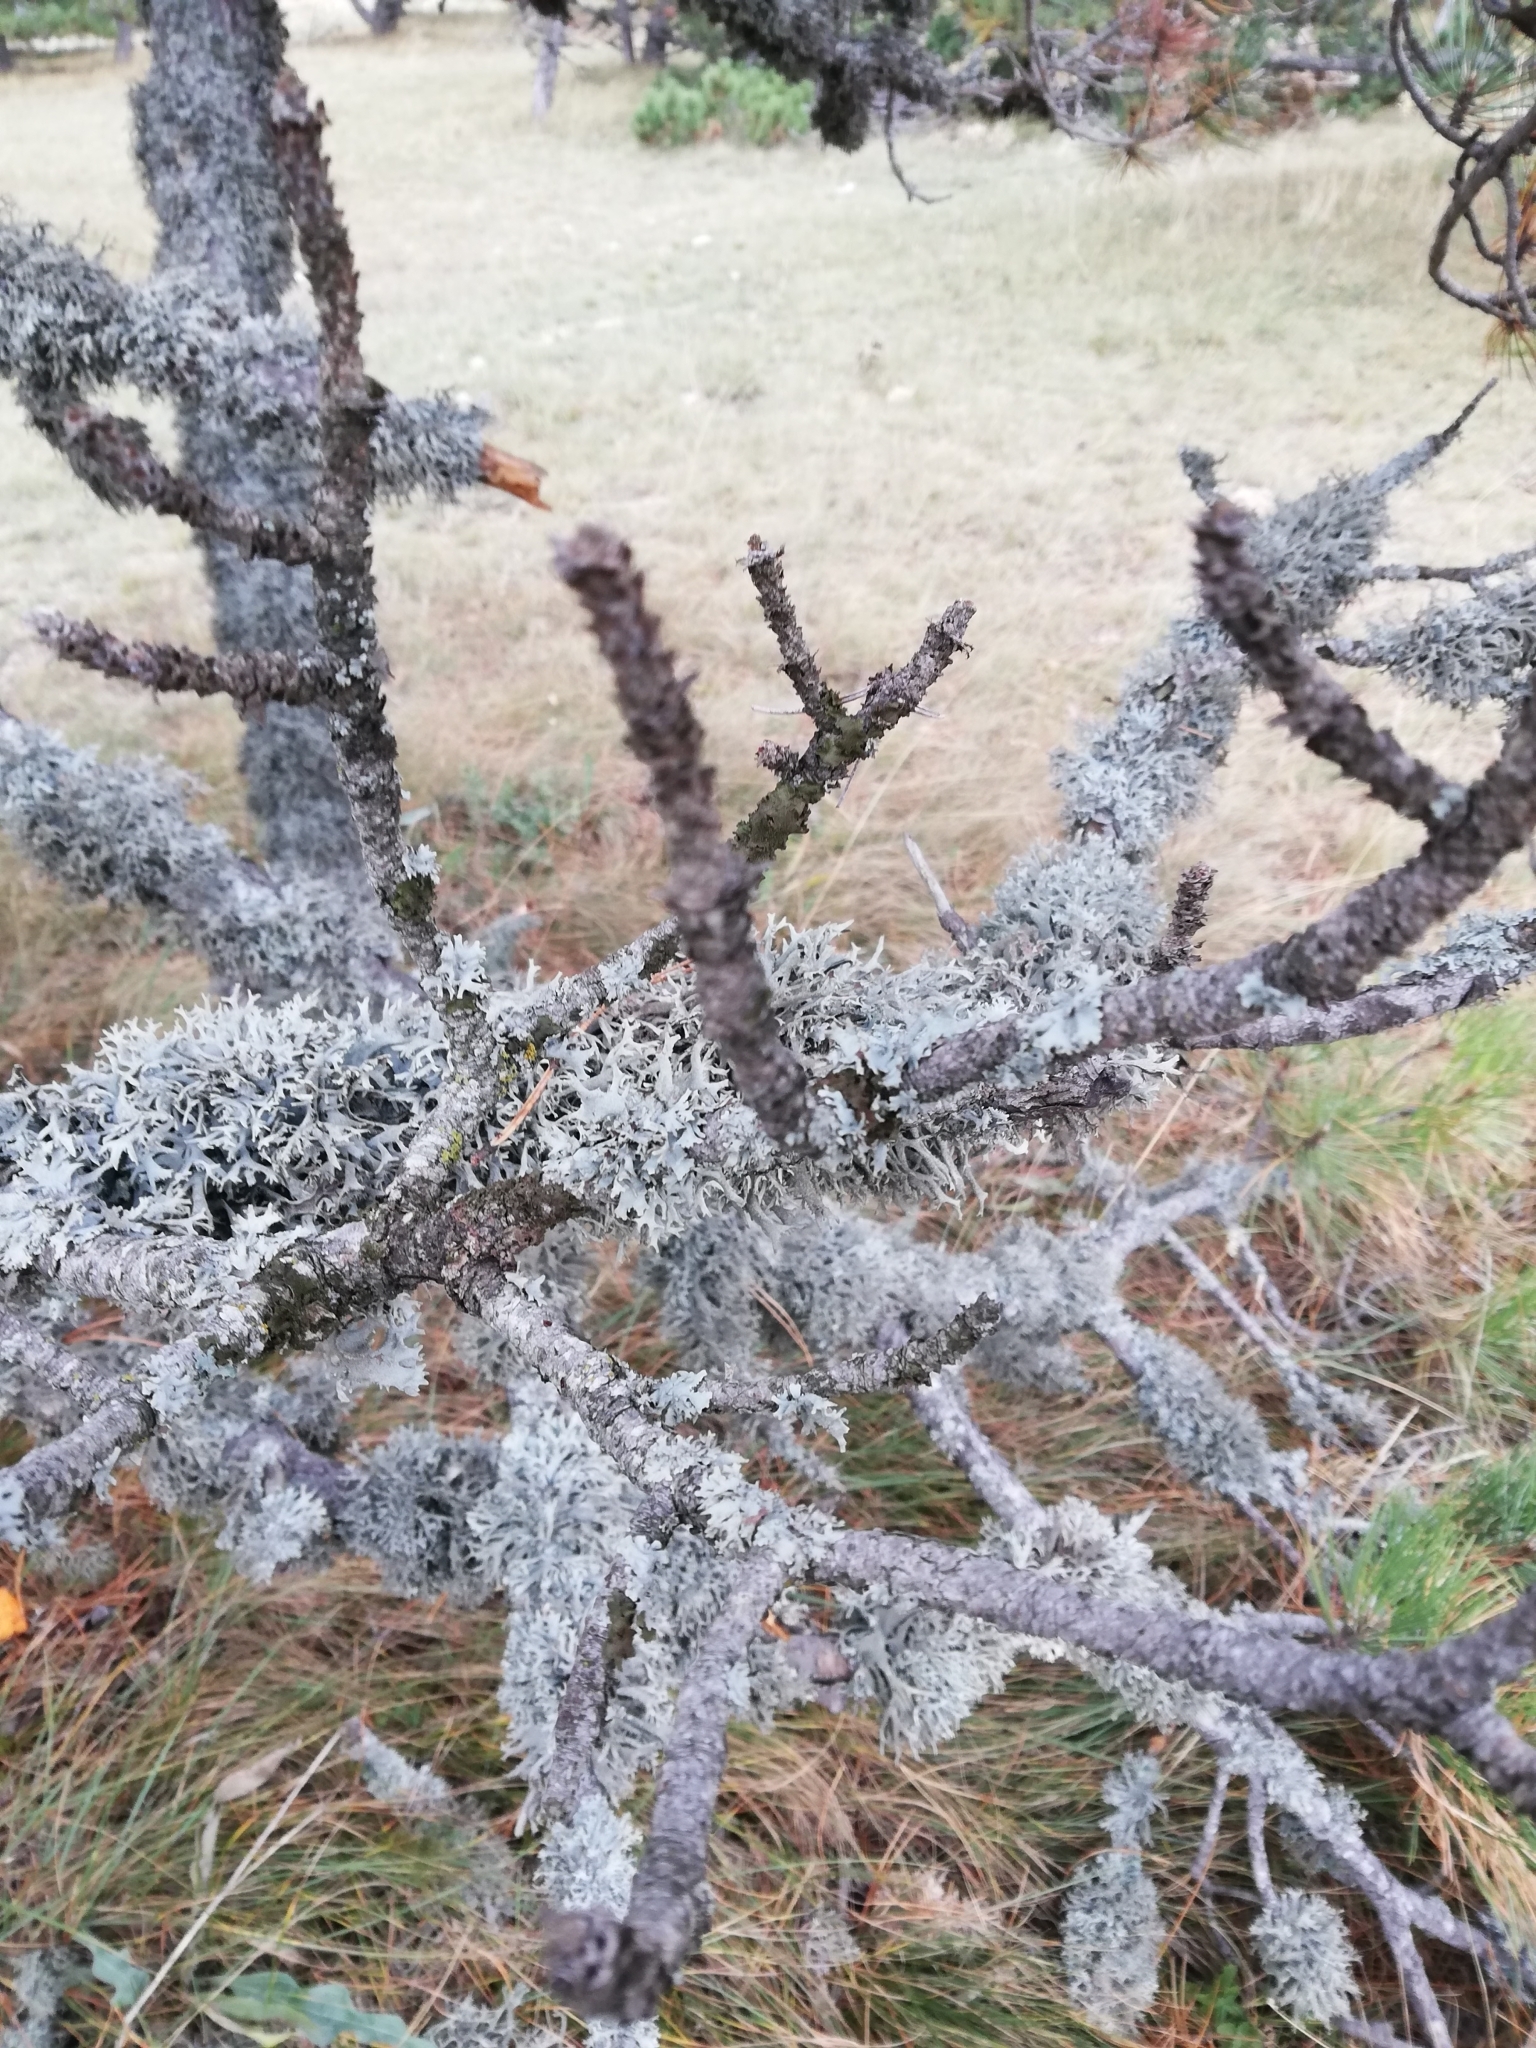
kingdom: Fungi
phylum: Ascomycota
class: Lecanoromycetes
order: Lecanorales
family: Parmeliaceae
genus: Pseudevernia
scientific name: Pseudevernia furfuracea
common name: Tree moss
